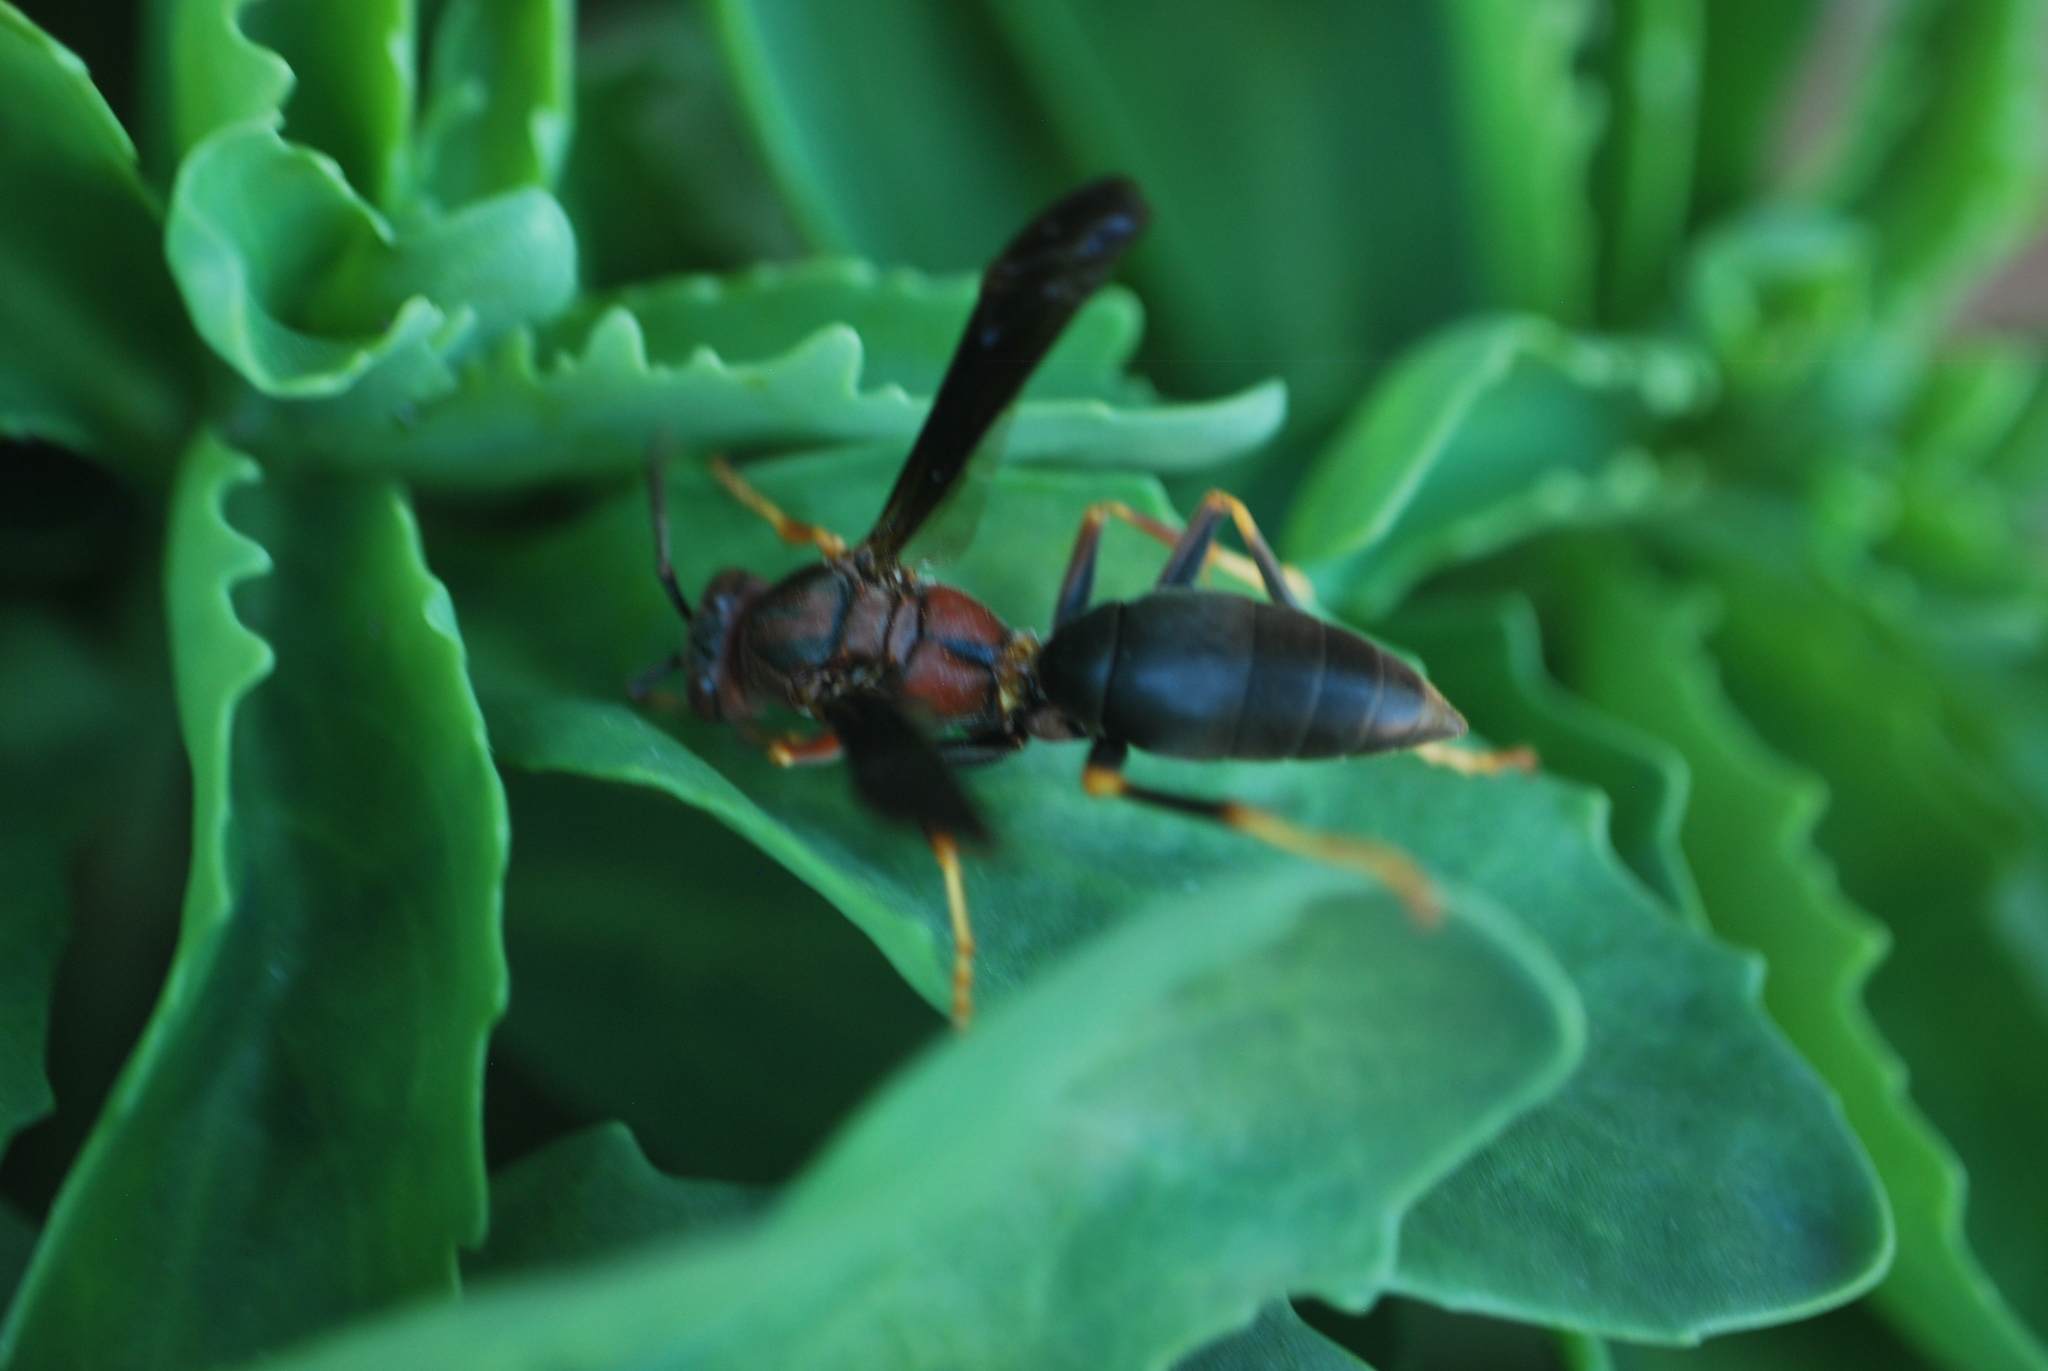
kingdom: Animalia
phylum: Arthropoda
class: Insecta
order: Hymenoptera
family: Eumenidae
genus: Polistes
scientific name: Polistes metricus
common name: Metric paper wasp
